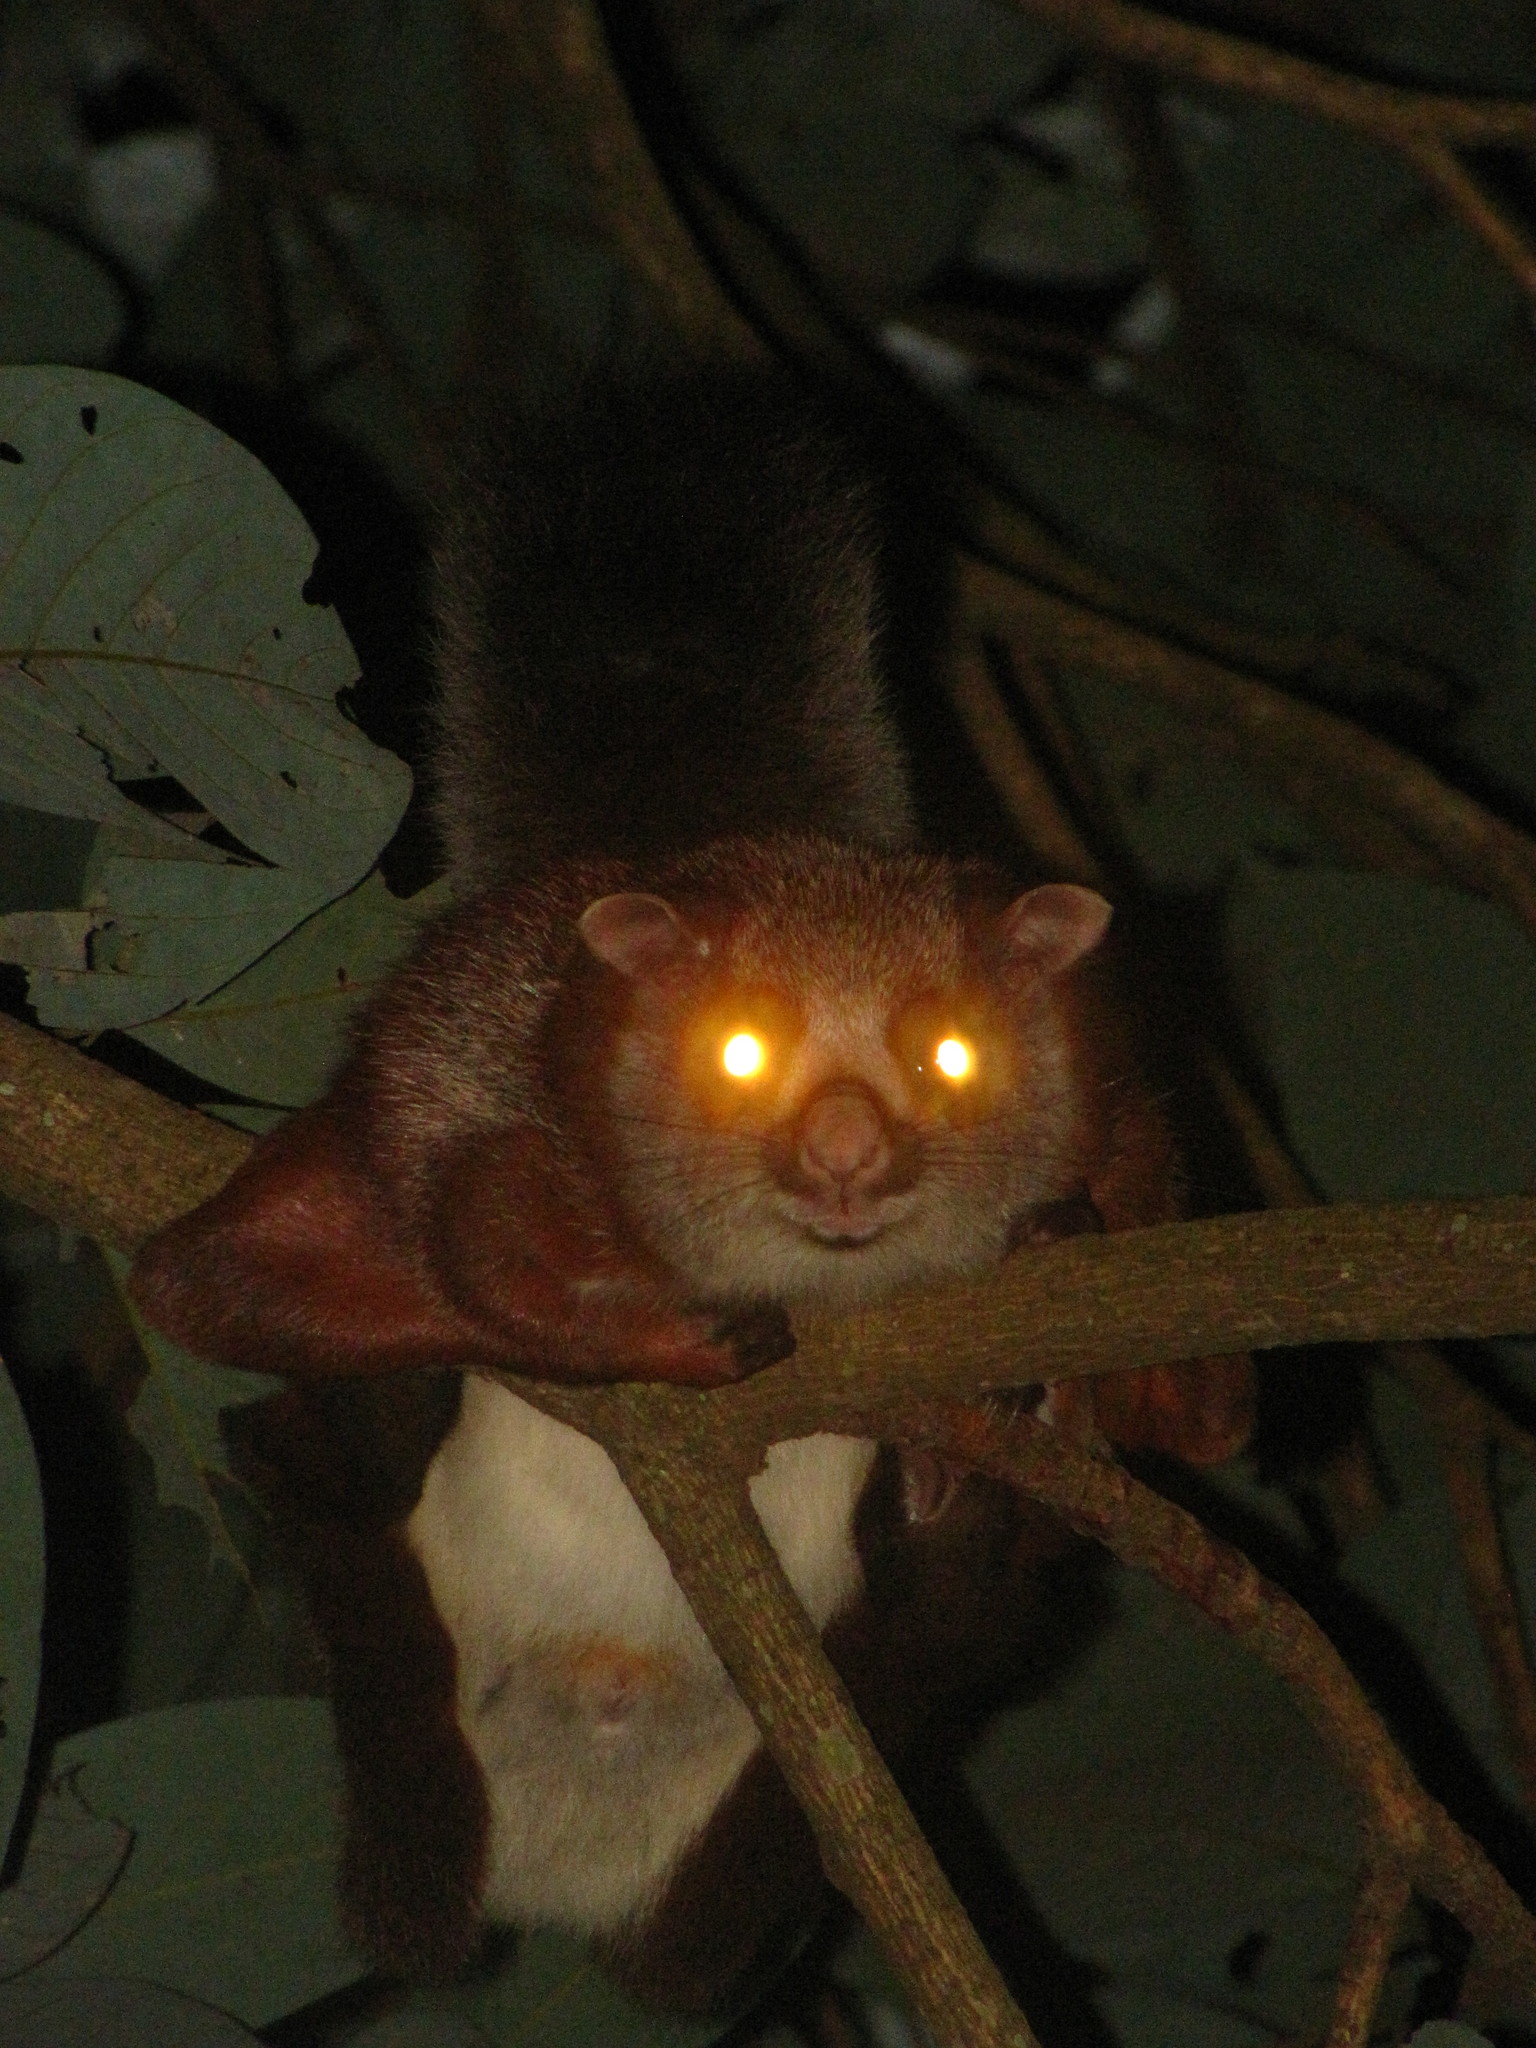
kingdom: Animalia
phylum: Chordata
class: Mammalia
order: Rodentia
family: Sciuridae
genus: Petaurista
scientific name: Petaurista petaurista
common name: Red giant flying squirrel
